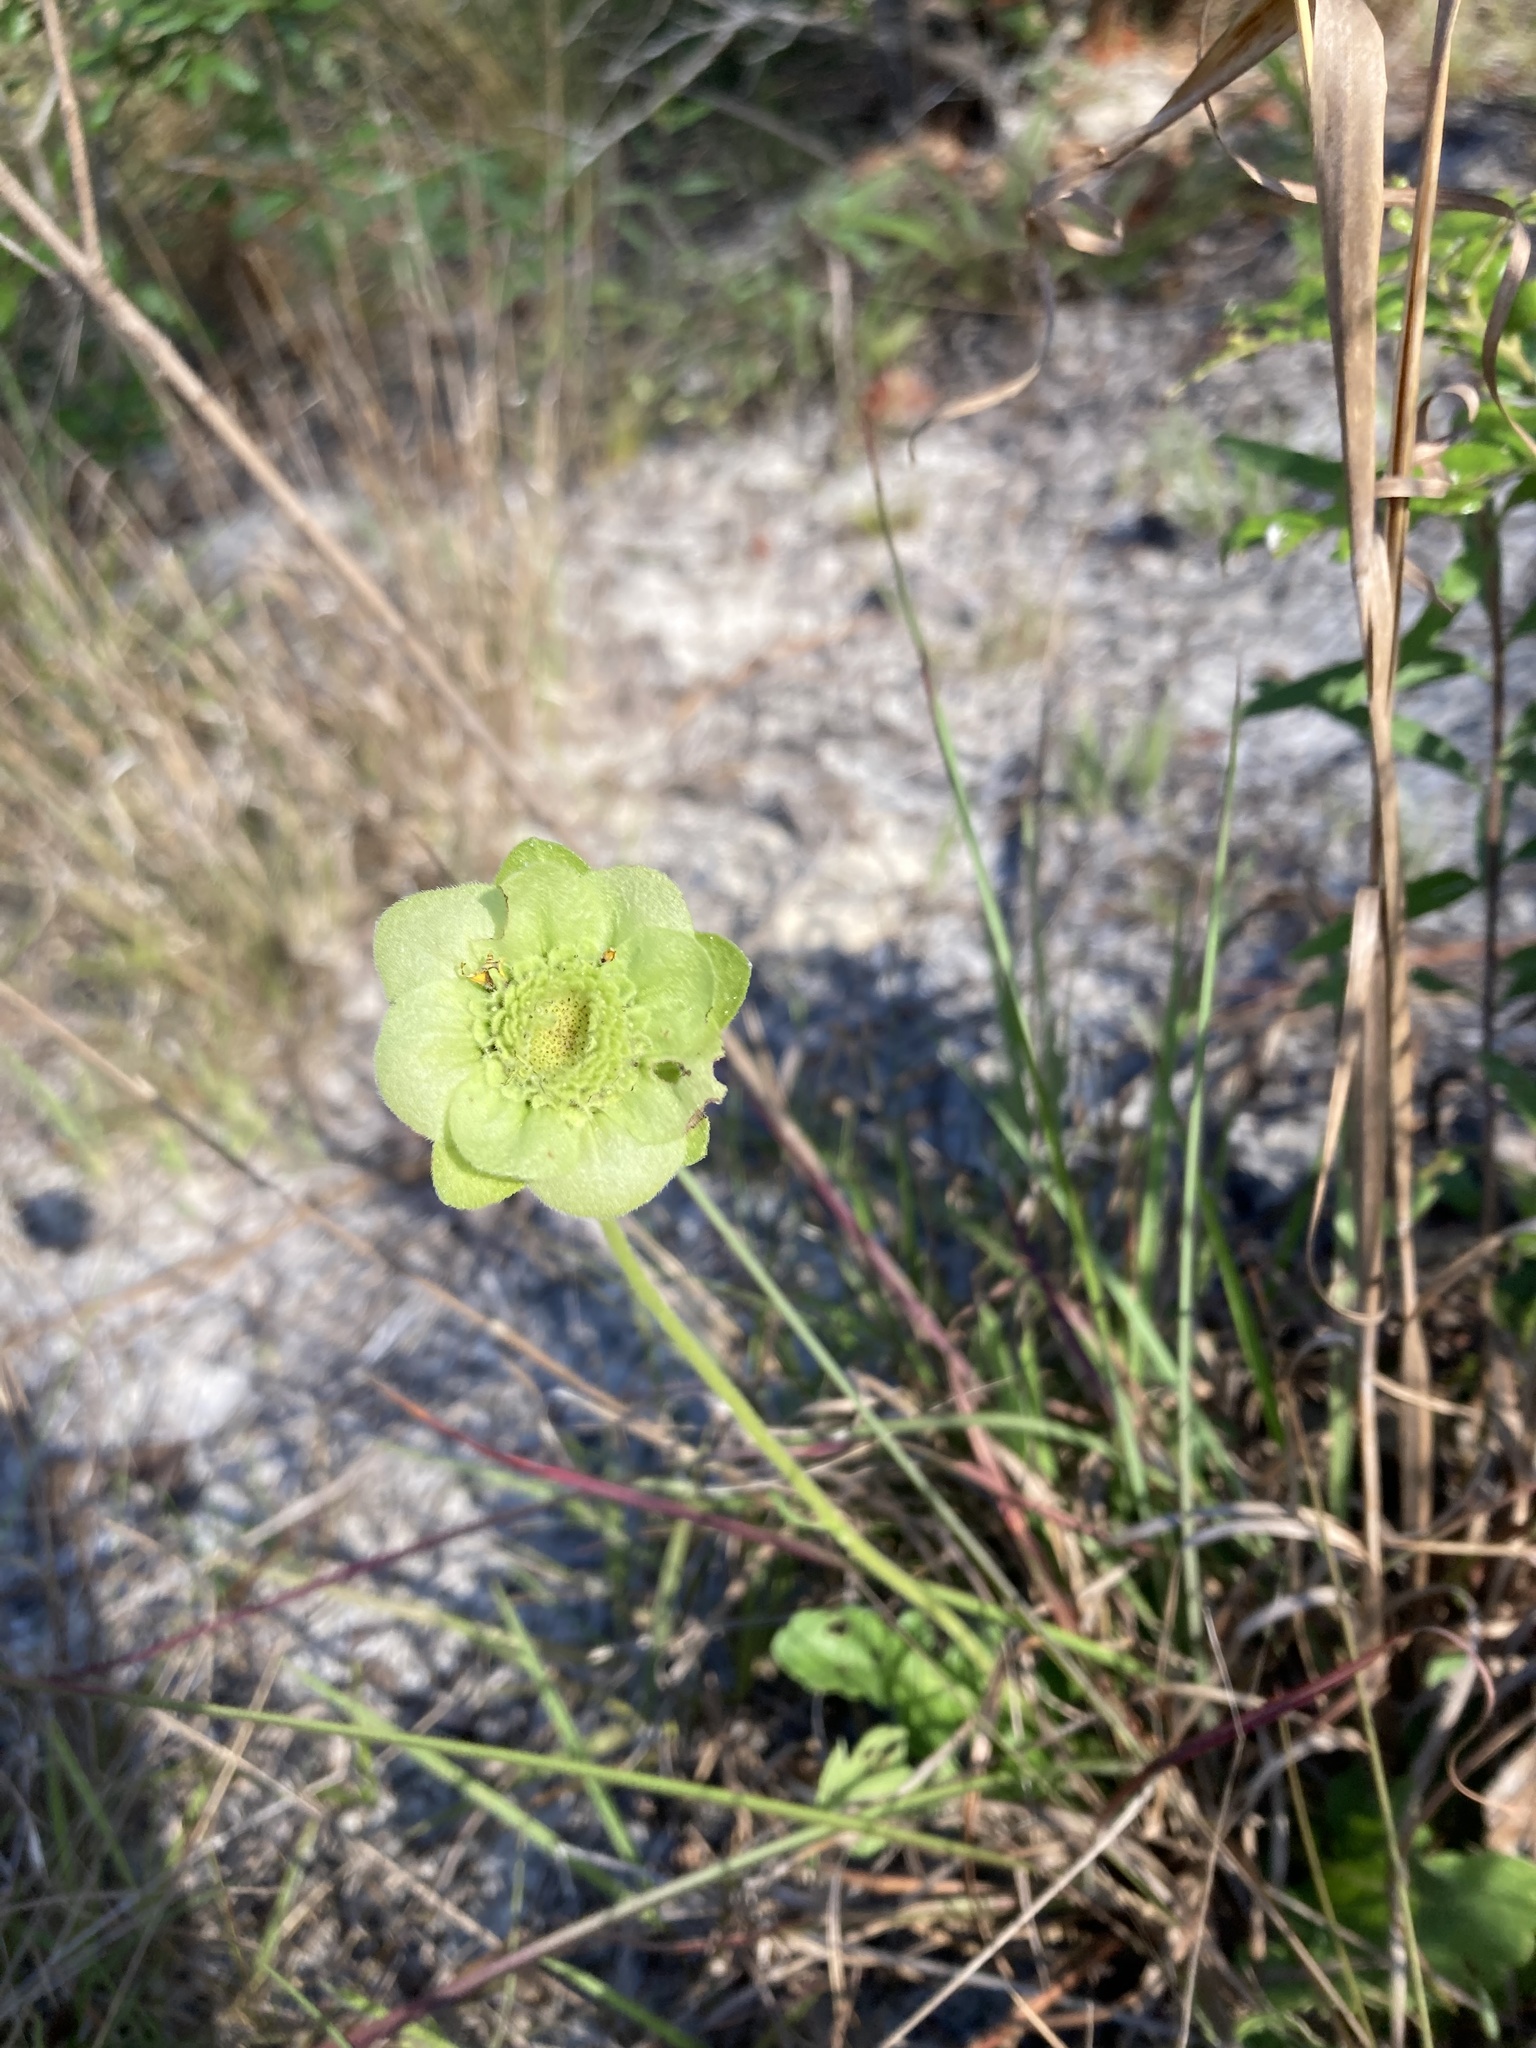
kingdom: Plantae
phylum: Tracheophyta
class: Magnoliopsida
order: Asterales
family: Asteraceae
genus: Berlandiera
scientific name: Berlandiera subacaulis
